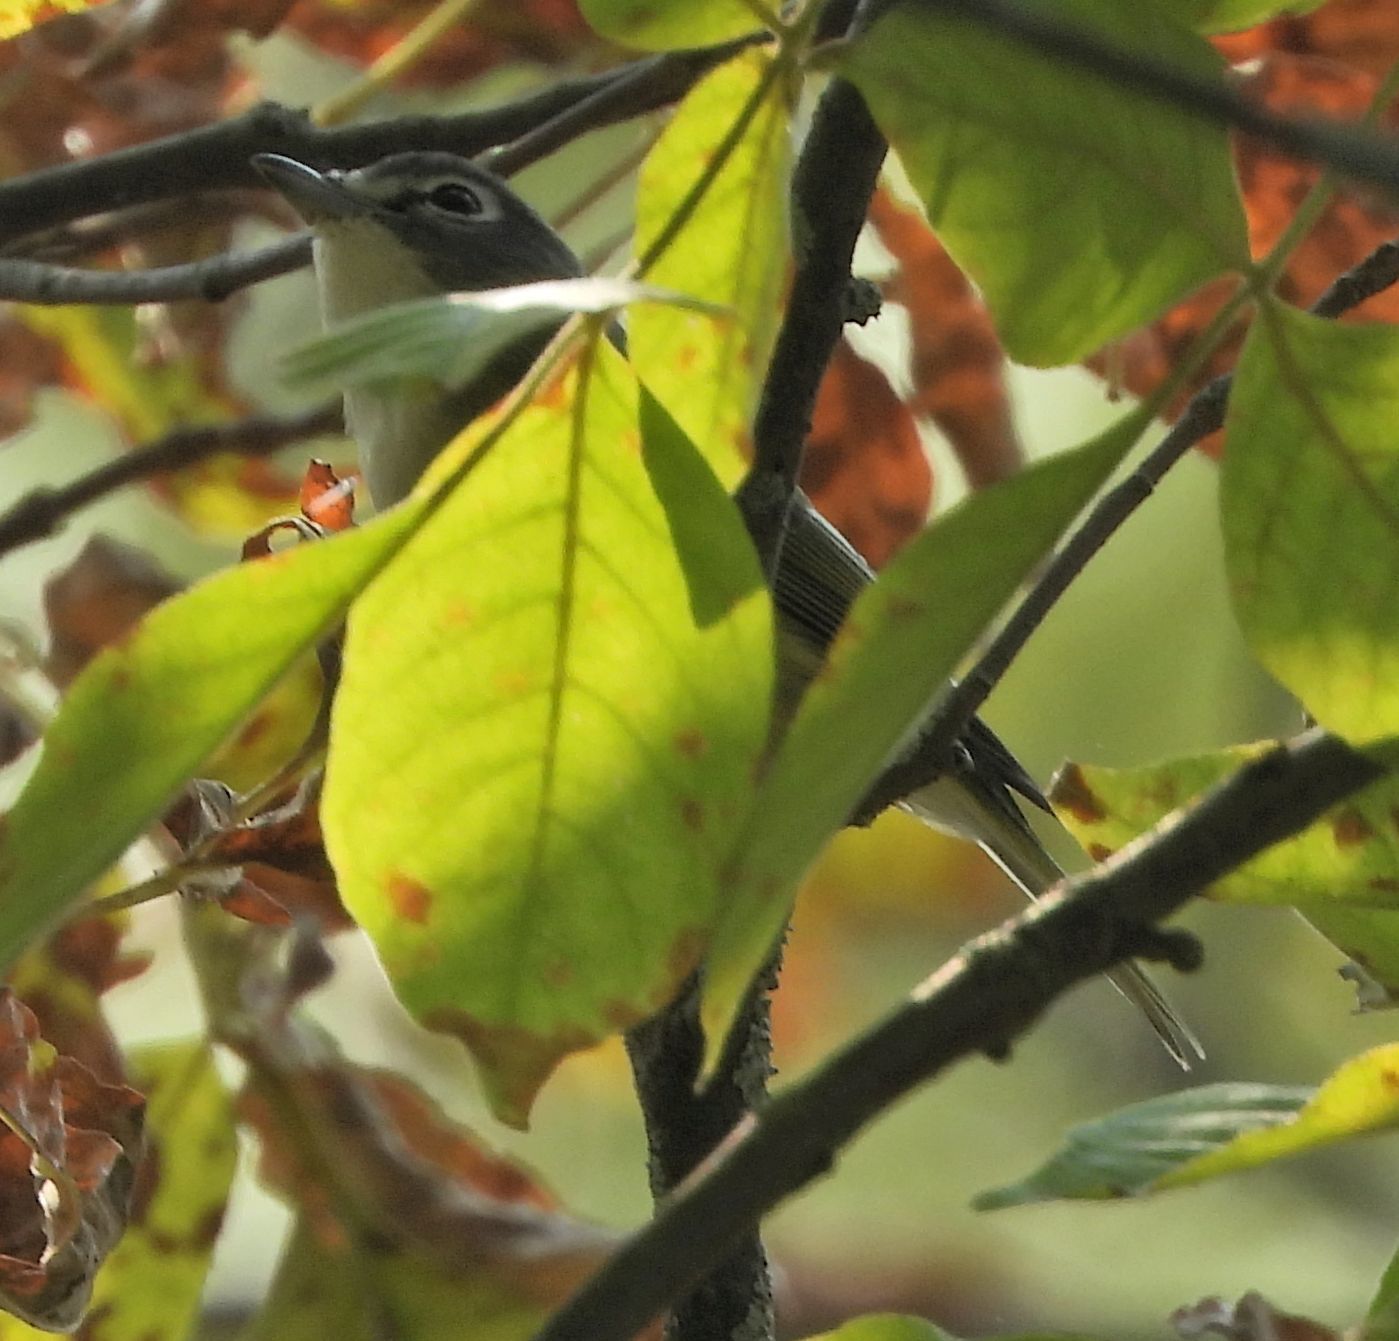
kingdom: Animalia
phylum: Chordata
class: Aves
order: Passeriformes
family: Vireonidae
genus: Vireo
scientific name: Vireo solitarius
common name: Blue-headed vireo
